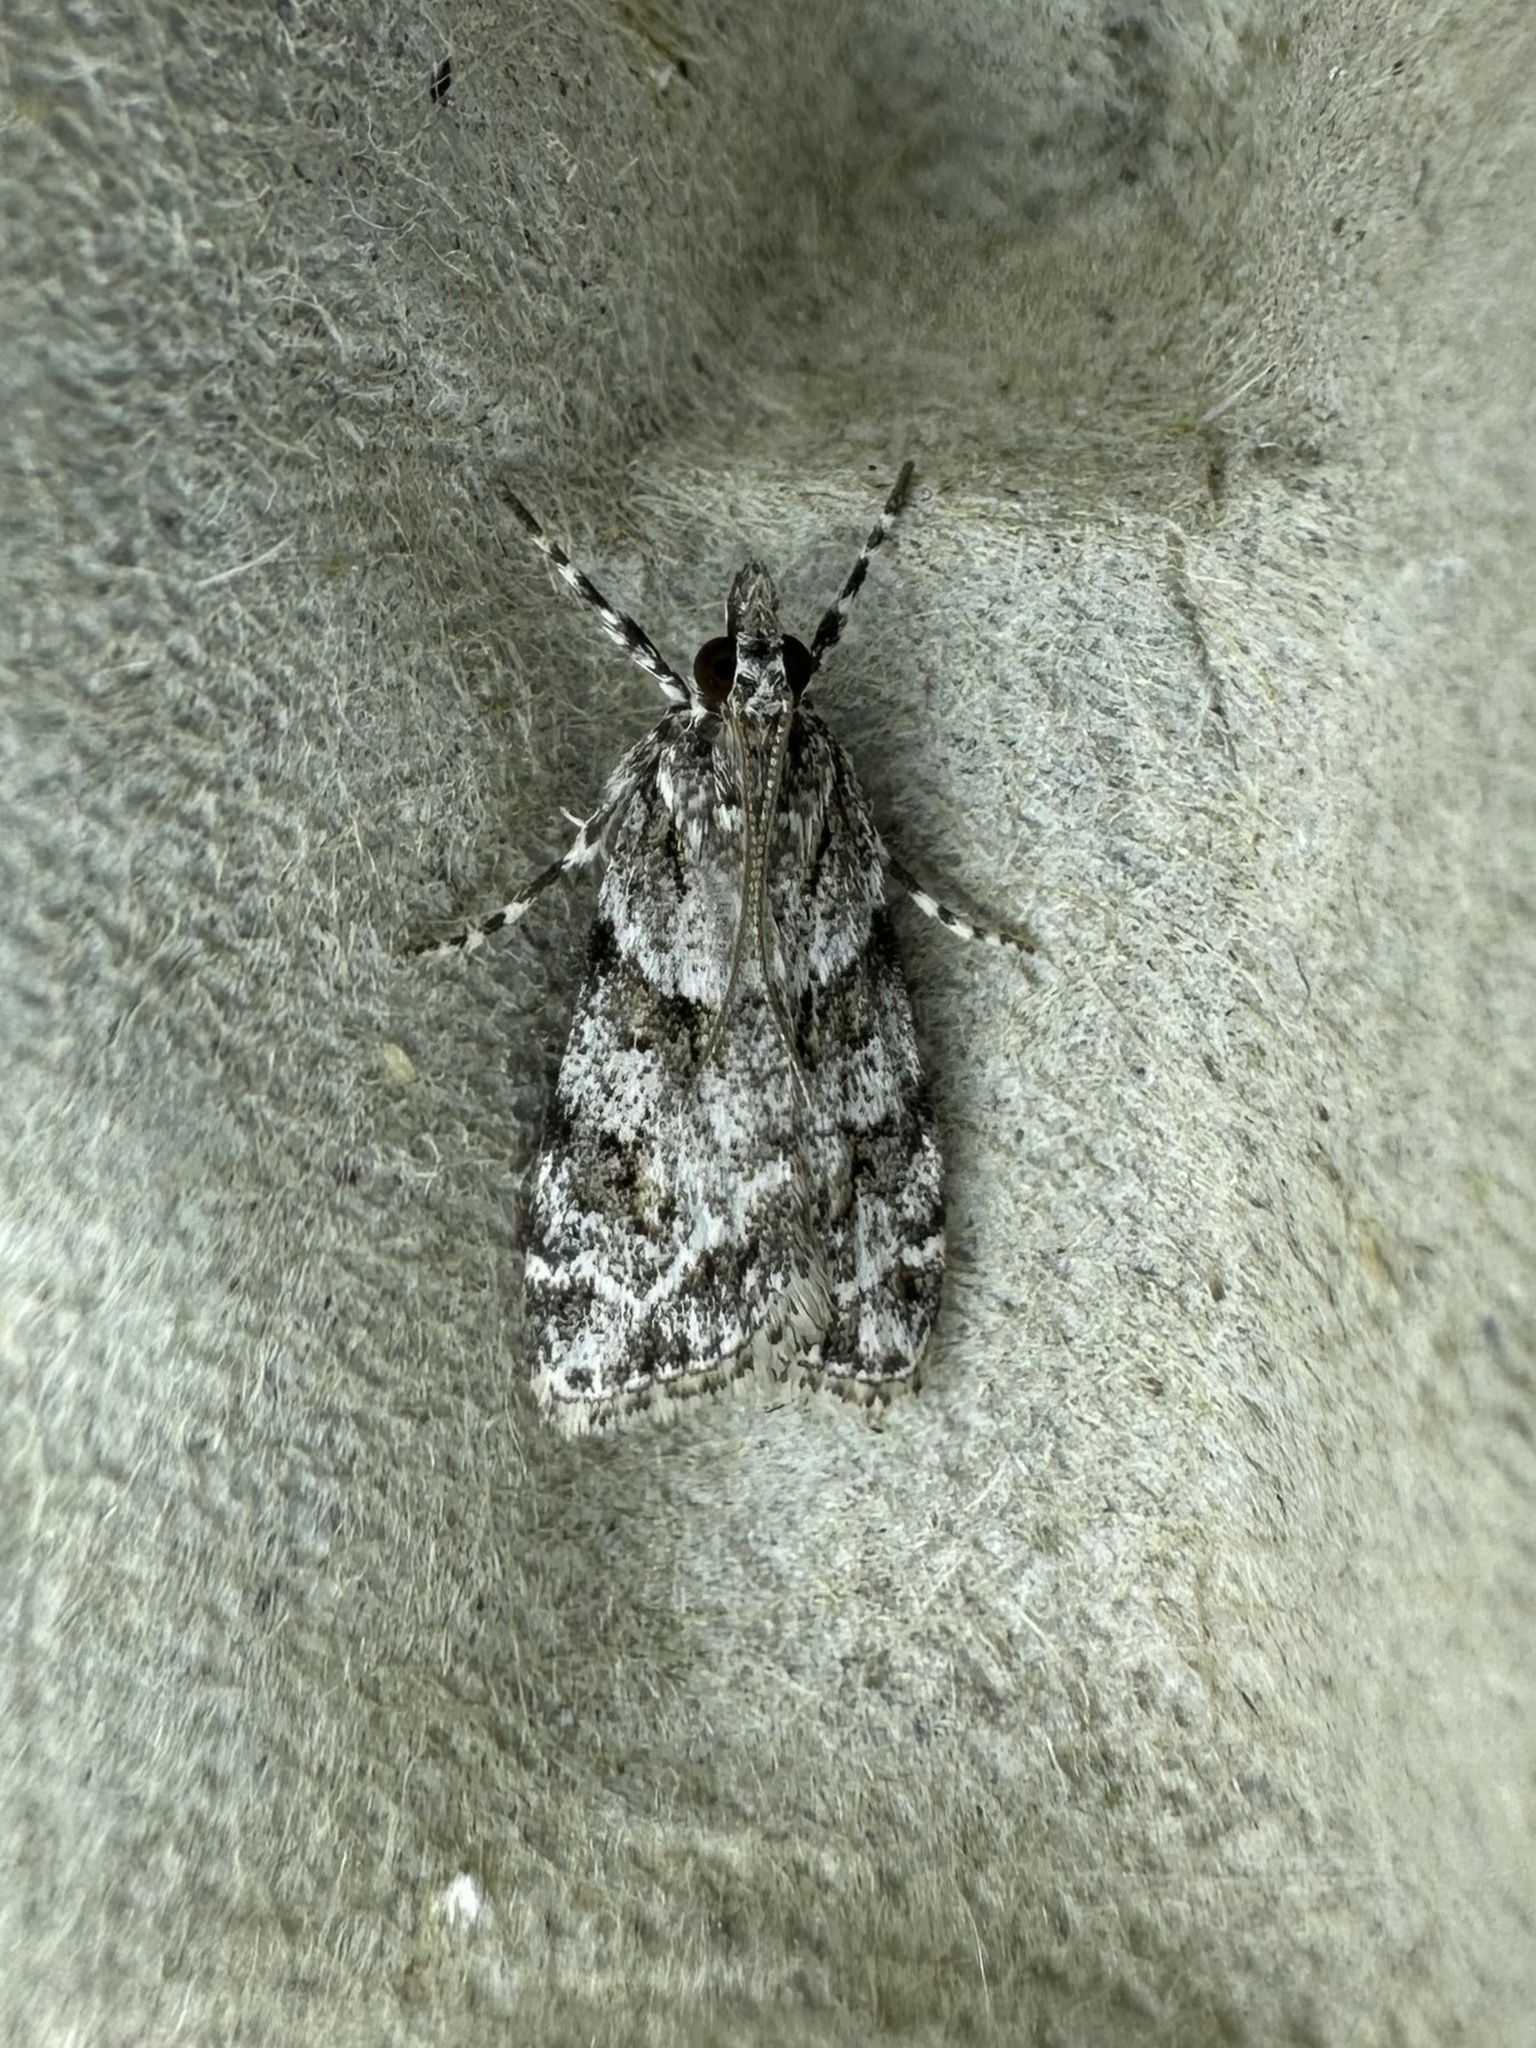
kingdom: Animalia
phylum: Arthropoda
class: Insecta
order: Lepidoptera
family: Crambidae
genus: Scoparia
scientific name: Scoparia biplagialis
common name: Double-striped scoparia moth
